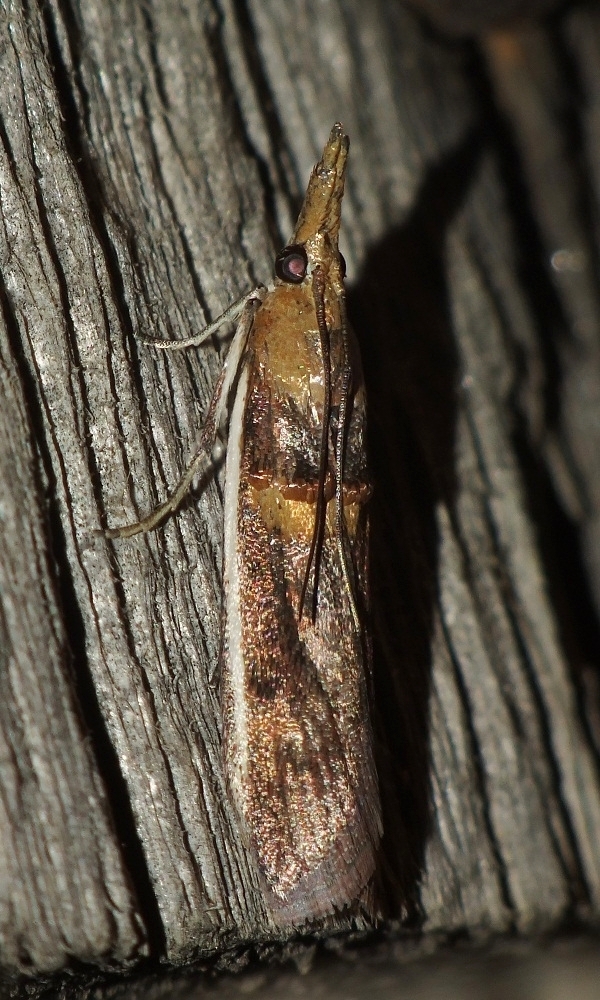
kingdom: Animalia
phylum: Arthropoda
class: Insecta
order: Lepidoptera
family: Pyralidae
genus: Etiella
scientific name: Etiella zinckenella
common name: Gold-banded etiella moth
